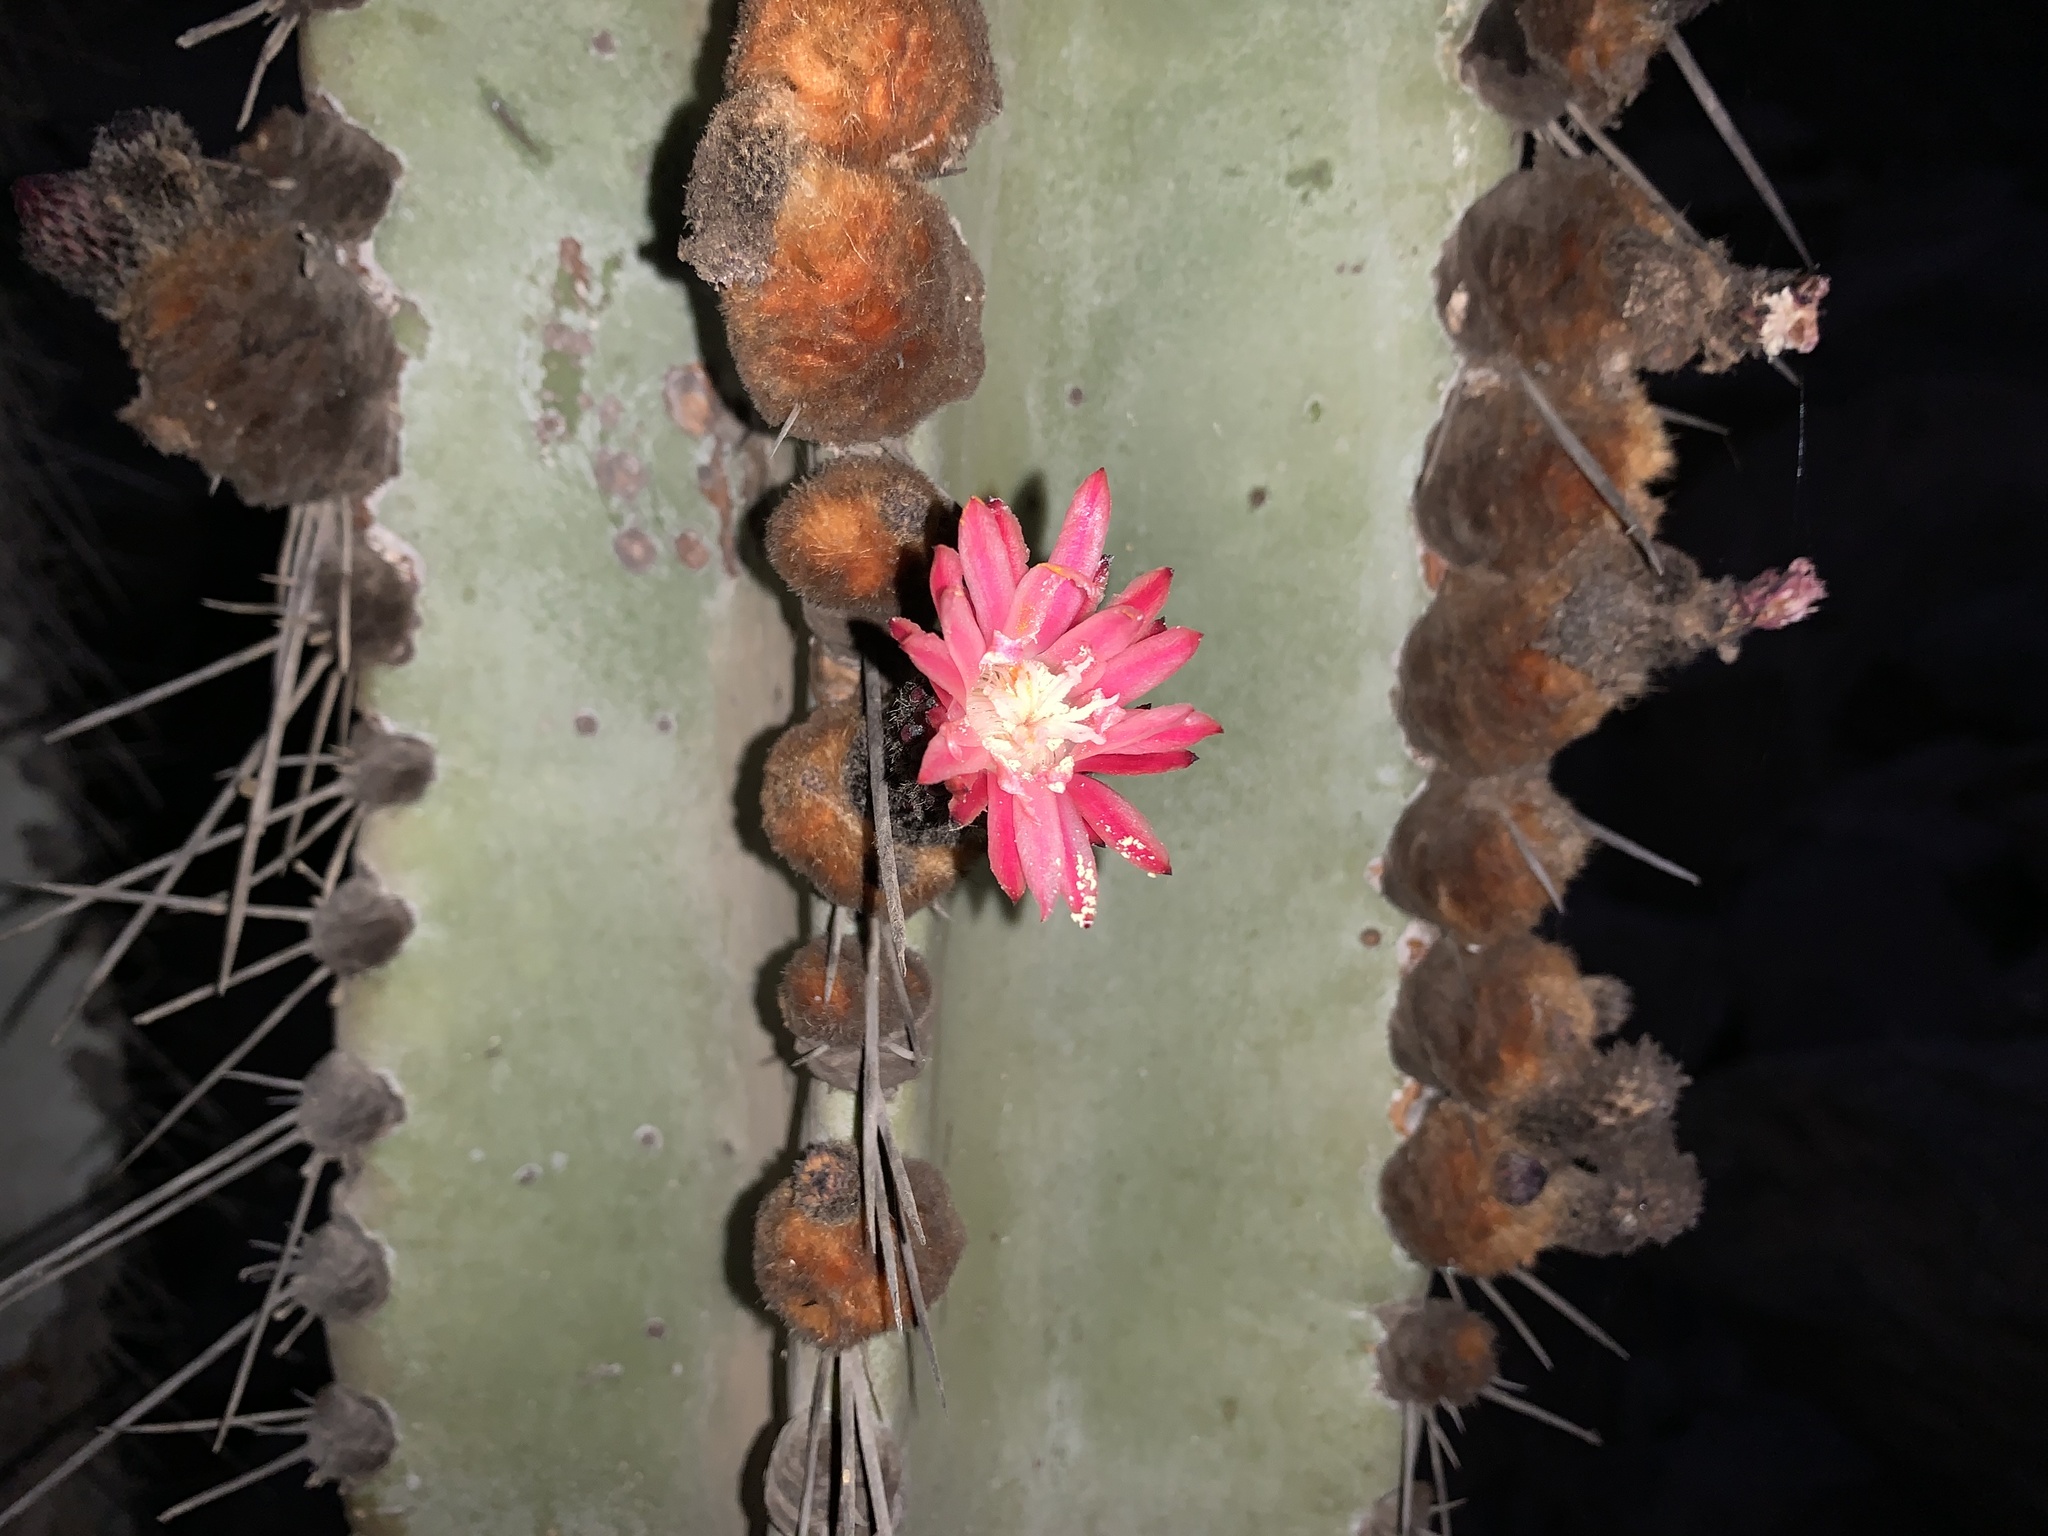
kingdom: Plantae
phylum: Tracheophyta
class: Magnoliopsida
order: Caryophyllales
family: Cactaceae
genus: Neoraimondia
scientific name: Neoraimondia arequipensis
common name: Big-bed-of-straw
